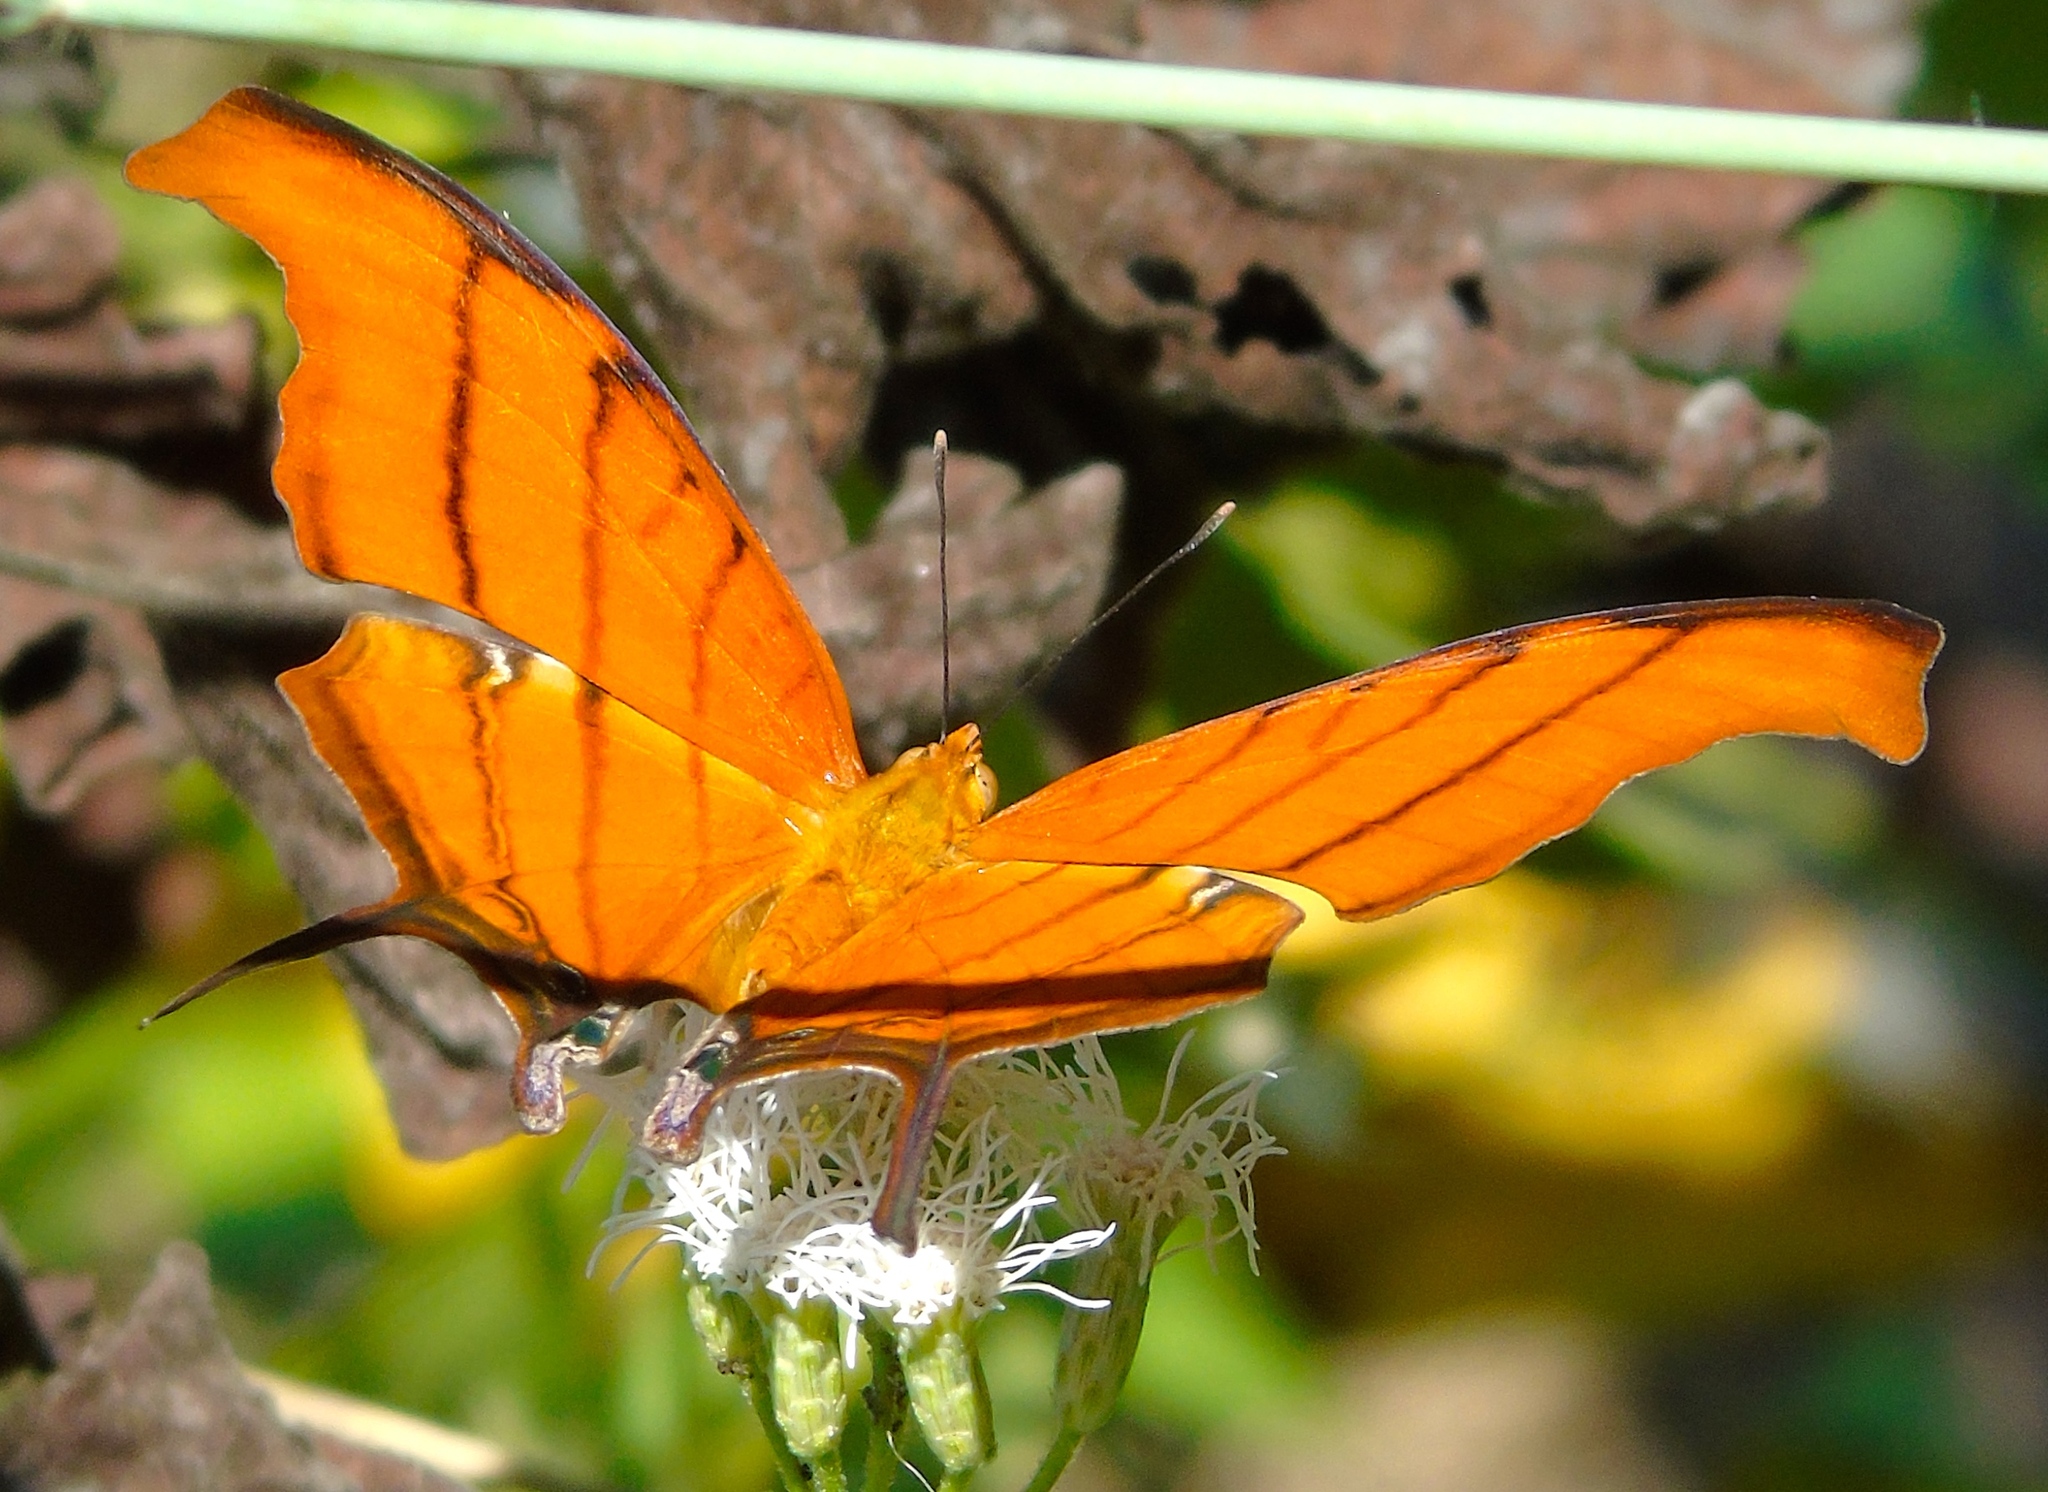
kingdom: Animalia
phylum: Arthropoda
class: Insecta
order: Lepidoptera
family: Nymphalidae
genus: Marpesia
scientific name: Marpesia petreus
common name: Red dagger wing
